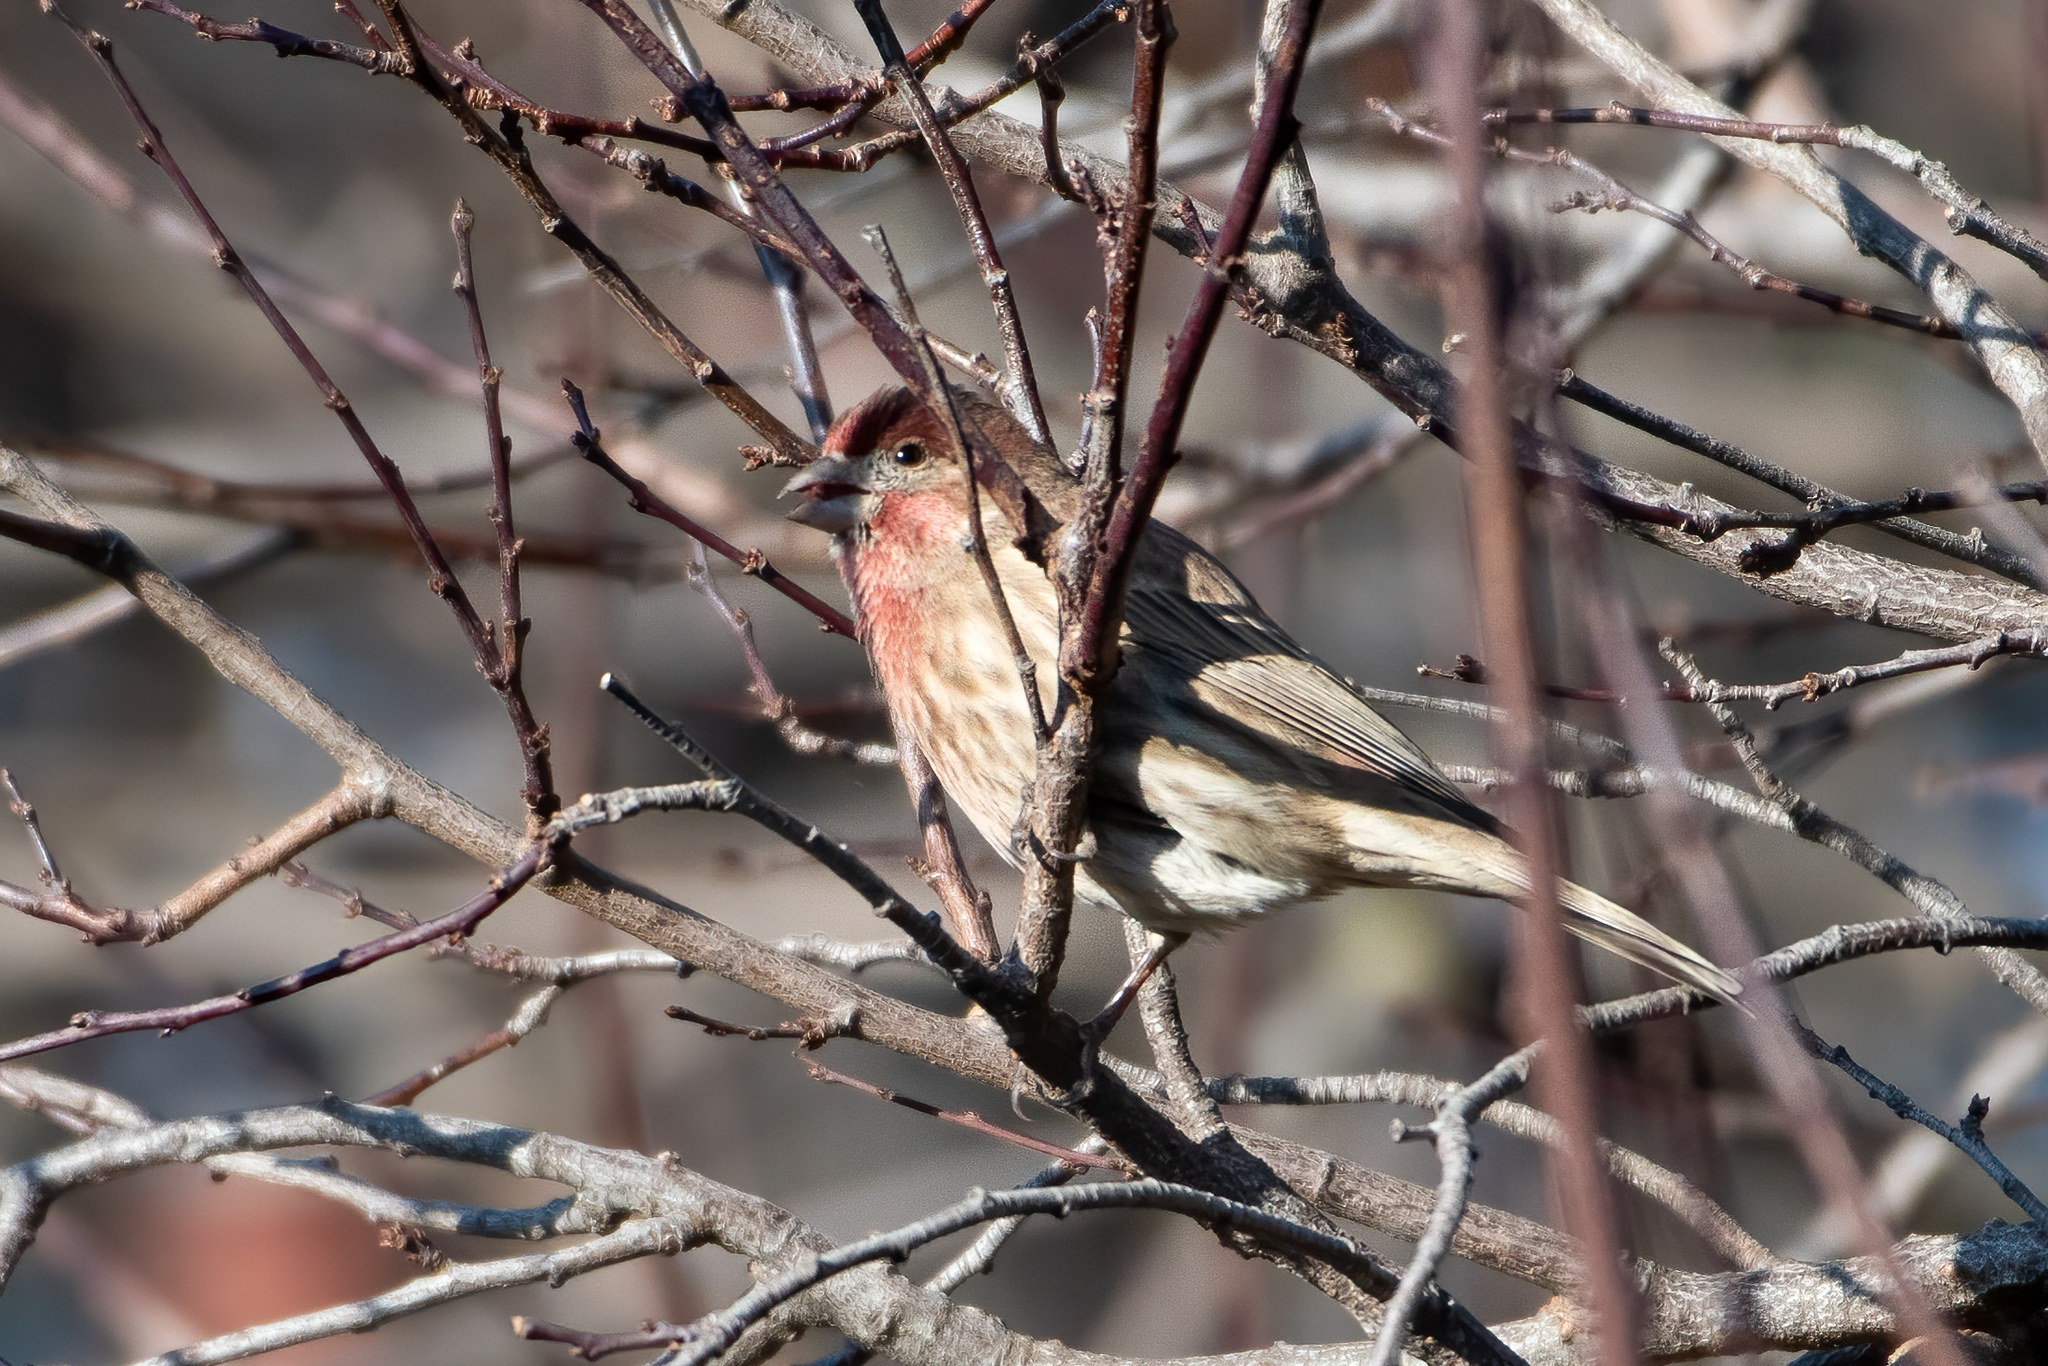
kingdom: Animalia
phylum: Chordata
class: Aves
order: Passeriformes
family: Fringillidae
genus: Haemorhous
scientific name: Haemorhous mexicanus
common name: House finch
